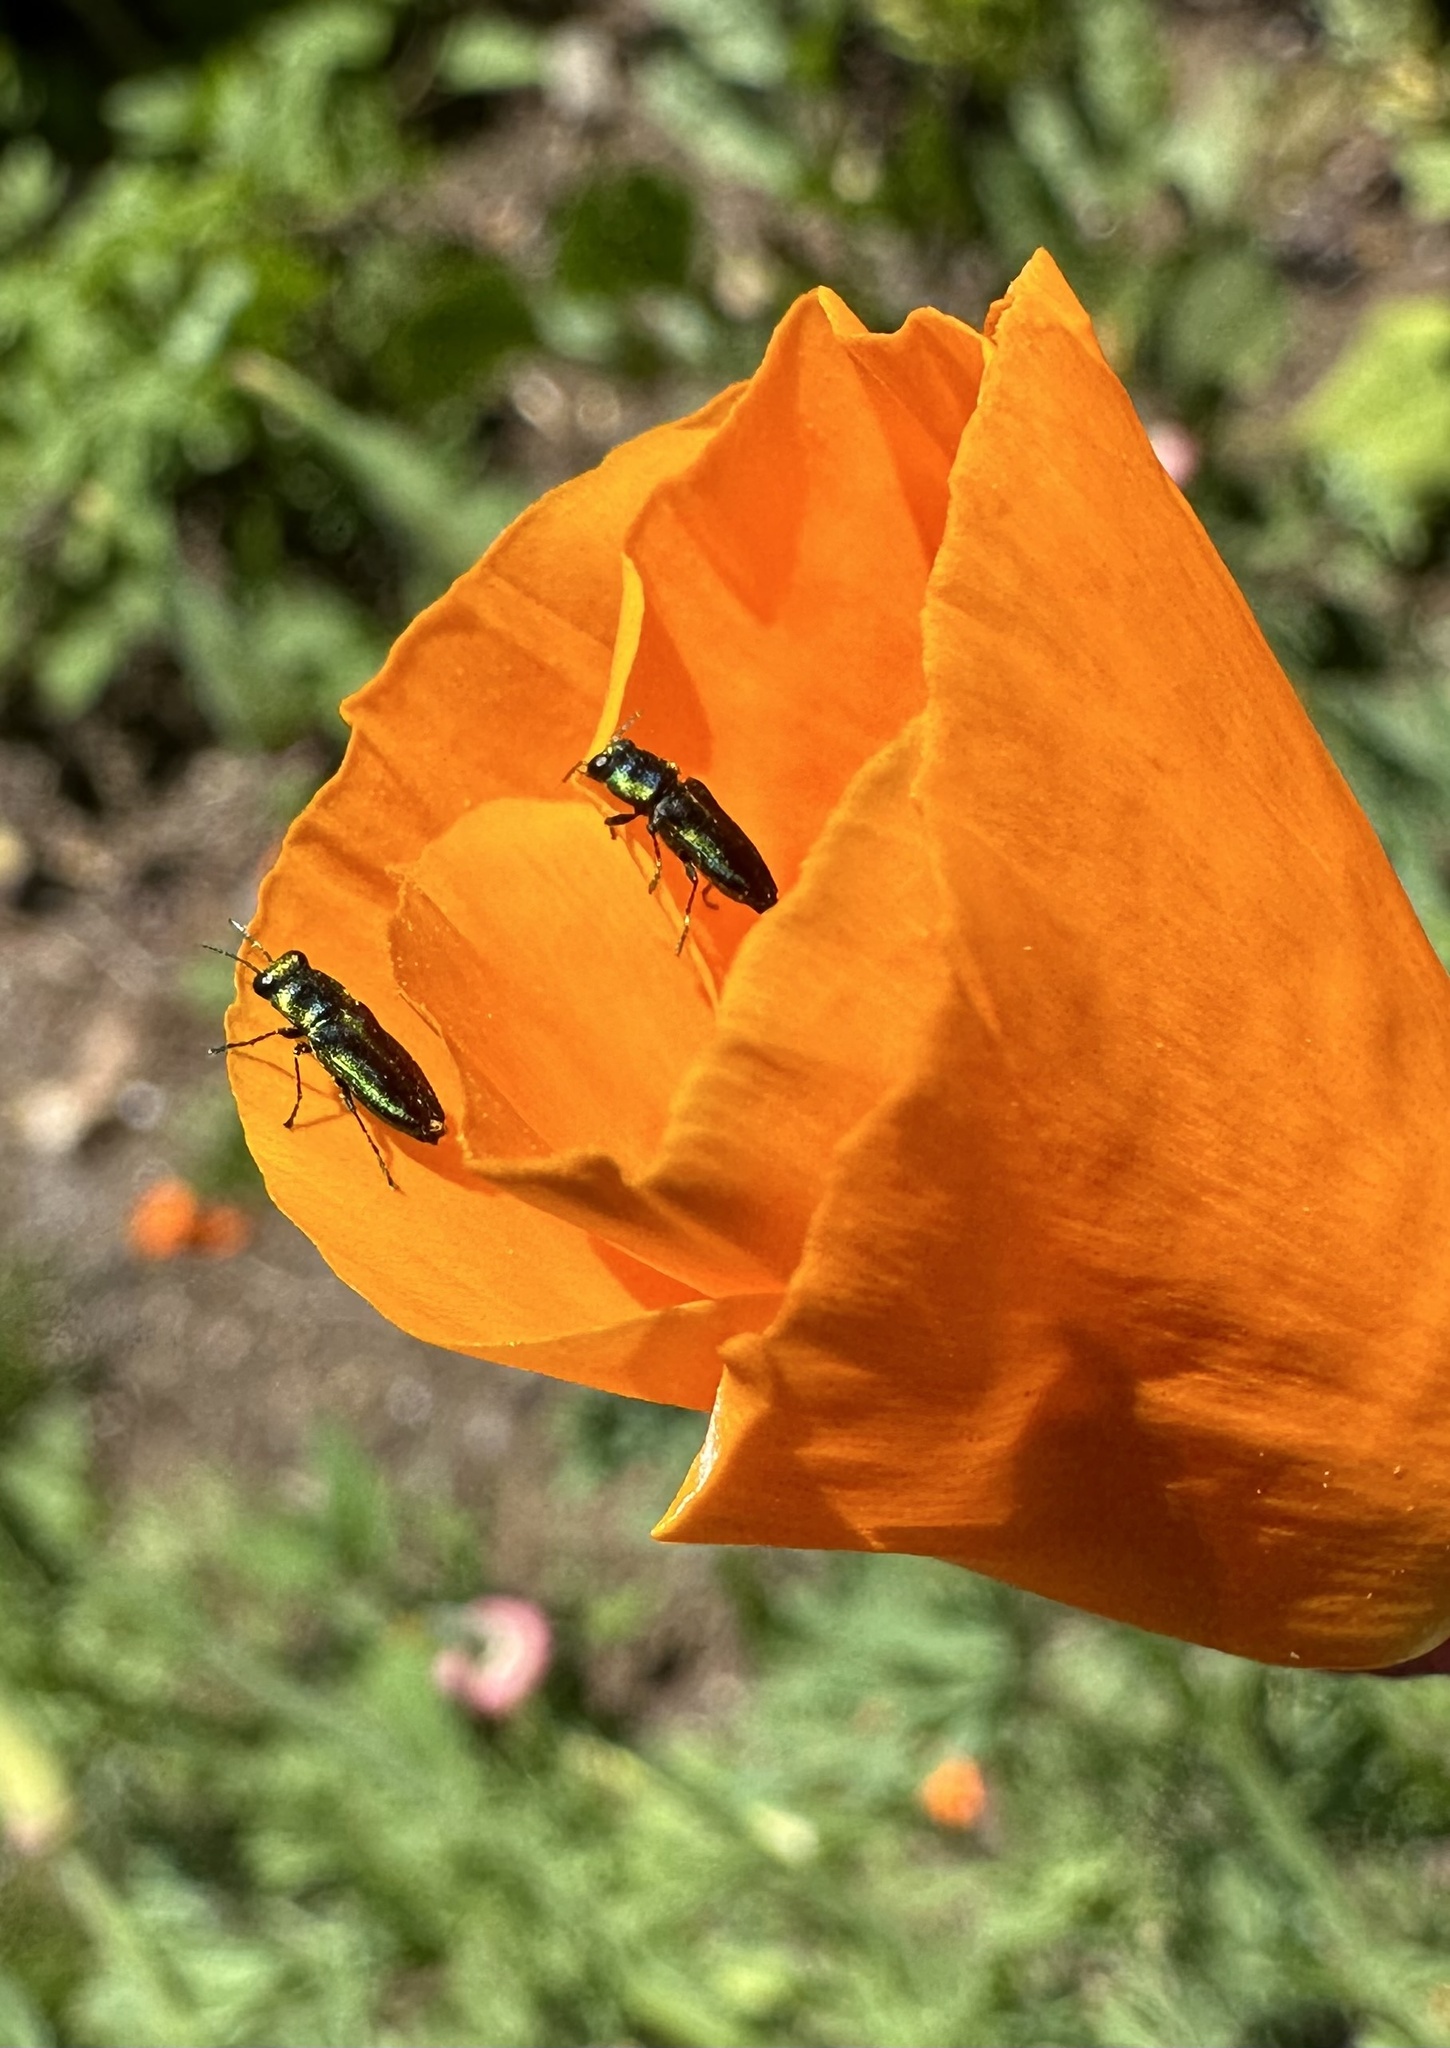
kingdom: Animalia
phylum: Arthropoda
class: Insecta
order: Coleoptera
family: Buprestidae
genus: Bilyaxia
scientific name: Bilyaxia concinna
